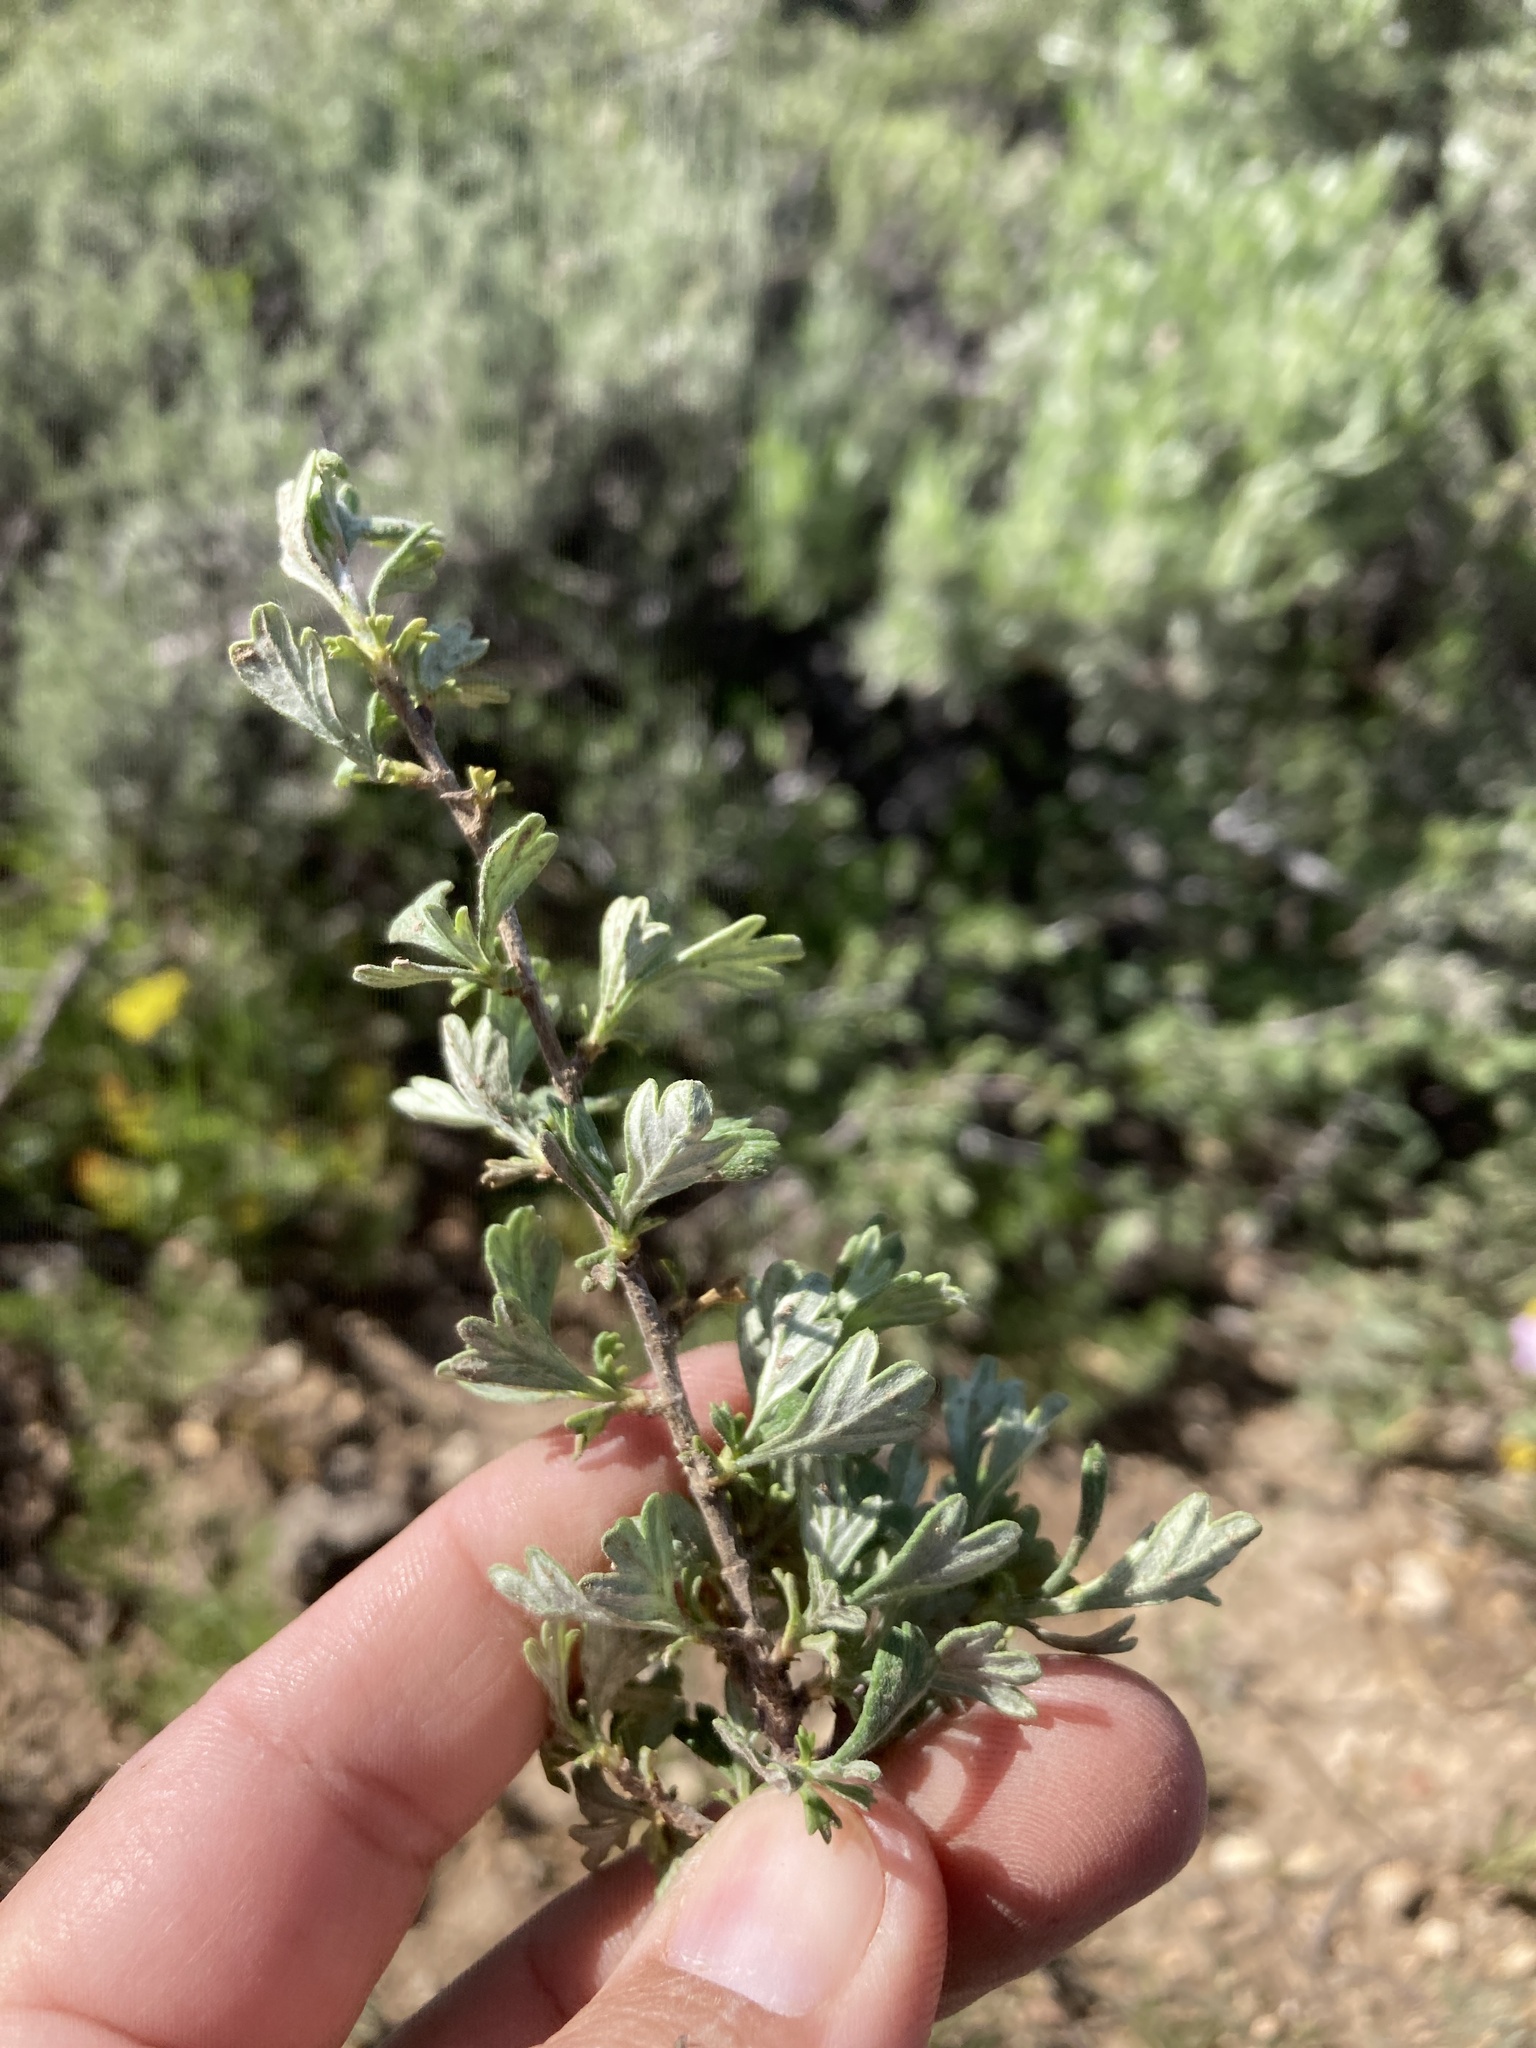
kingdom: Plantae
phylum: Tracheophyta
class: Magnoliopsida
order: Rosales
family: Rosaceae
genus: Purshia
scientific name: Purshia tridentata
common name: Antelope bitterbrush
